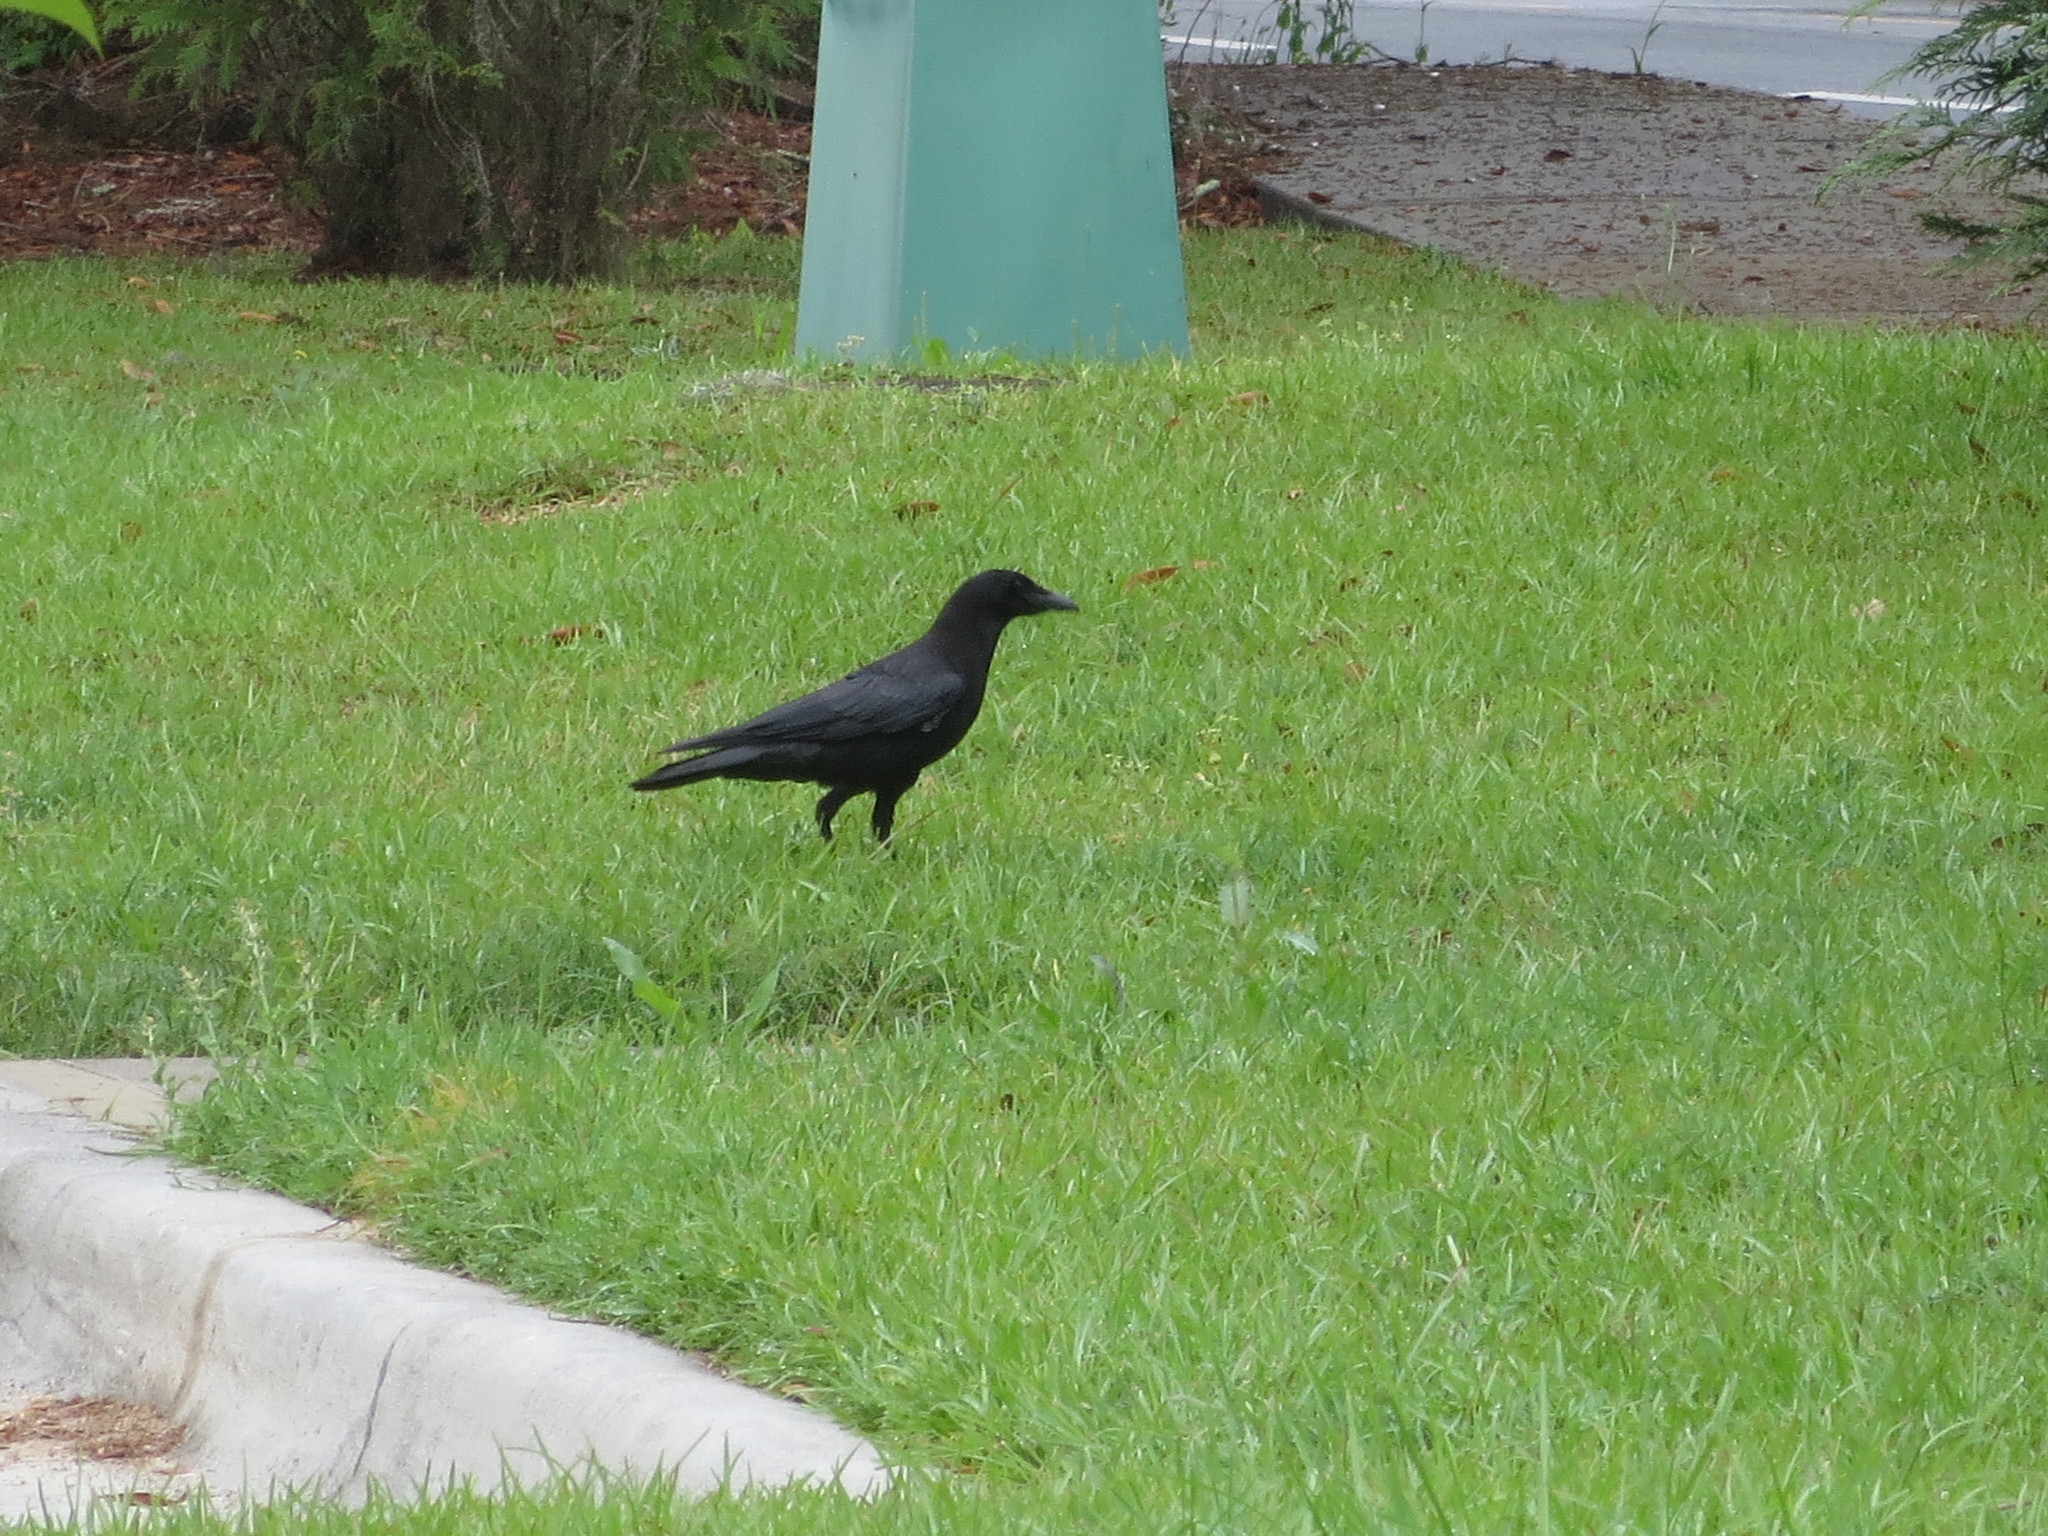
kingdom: Animalia
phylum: Chordata
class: Aves
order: Passeriformes
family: Corvidae
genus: Corvus
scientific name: Corvus brachyrhynchos
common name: American crow
